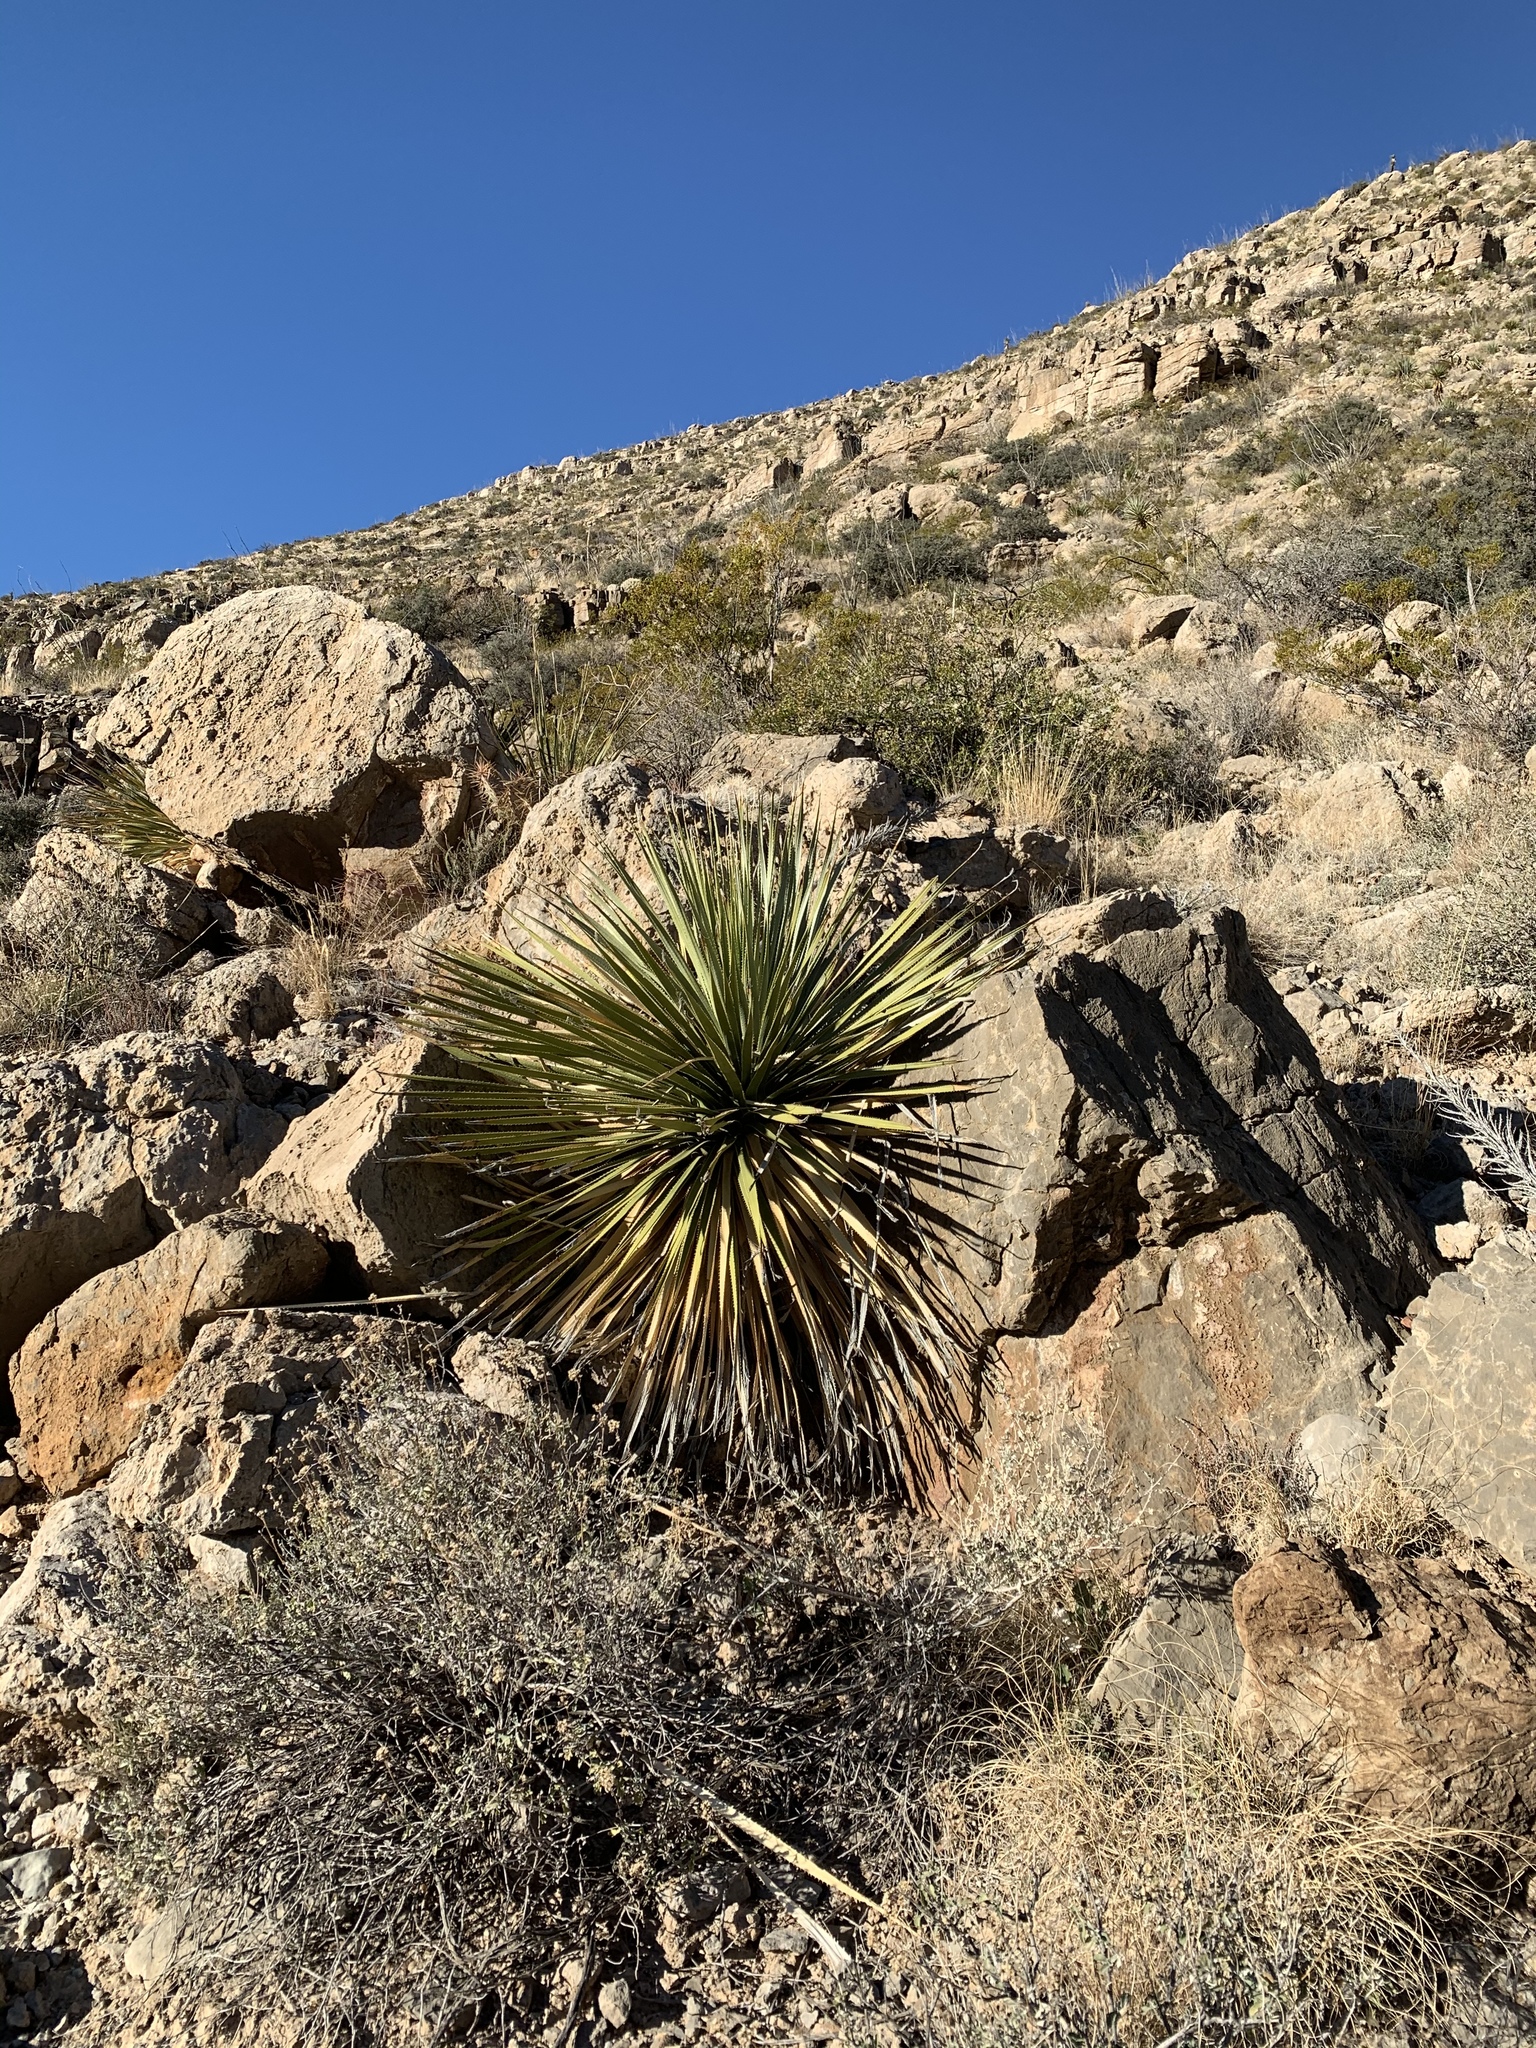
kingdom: Plantae
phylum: Tracheophyta
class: Liliopsida
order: Asparagales
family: Asparagaceae
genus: Dasylirion
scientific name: Dasylirion wheeleri
